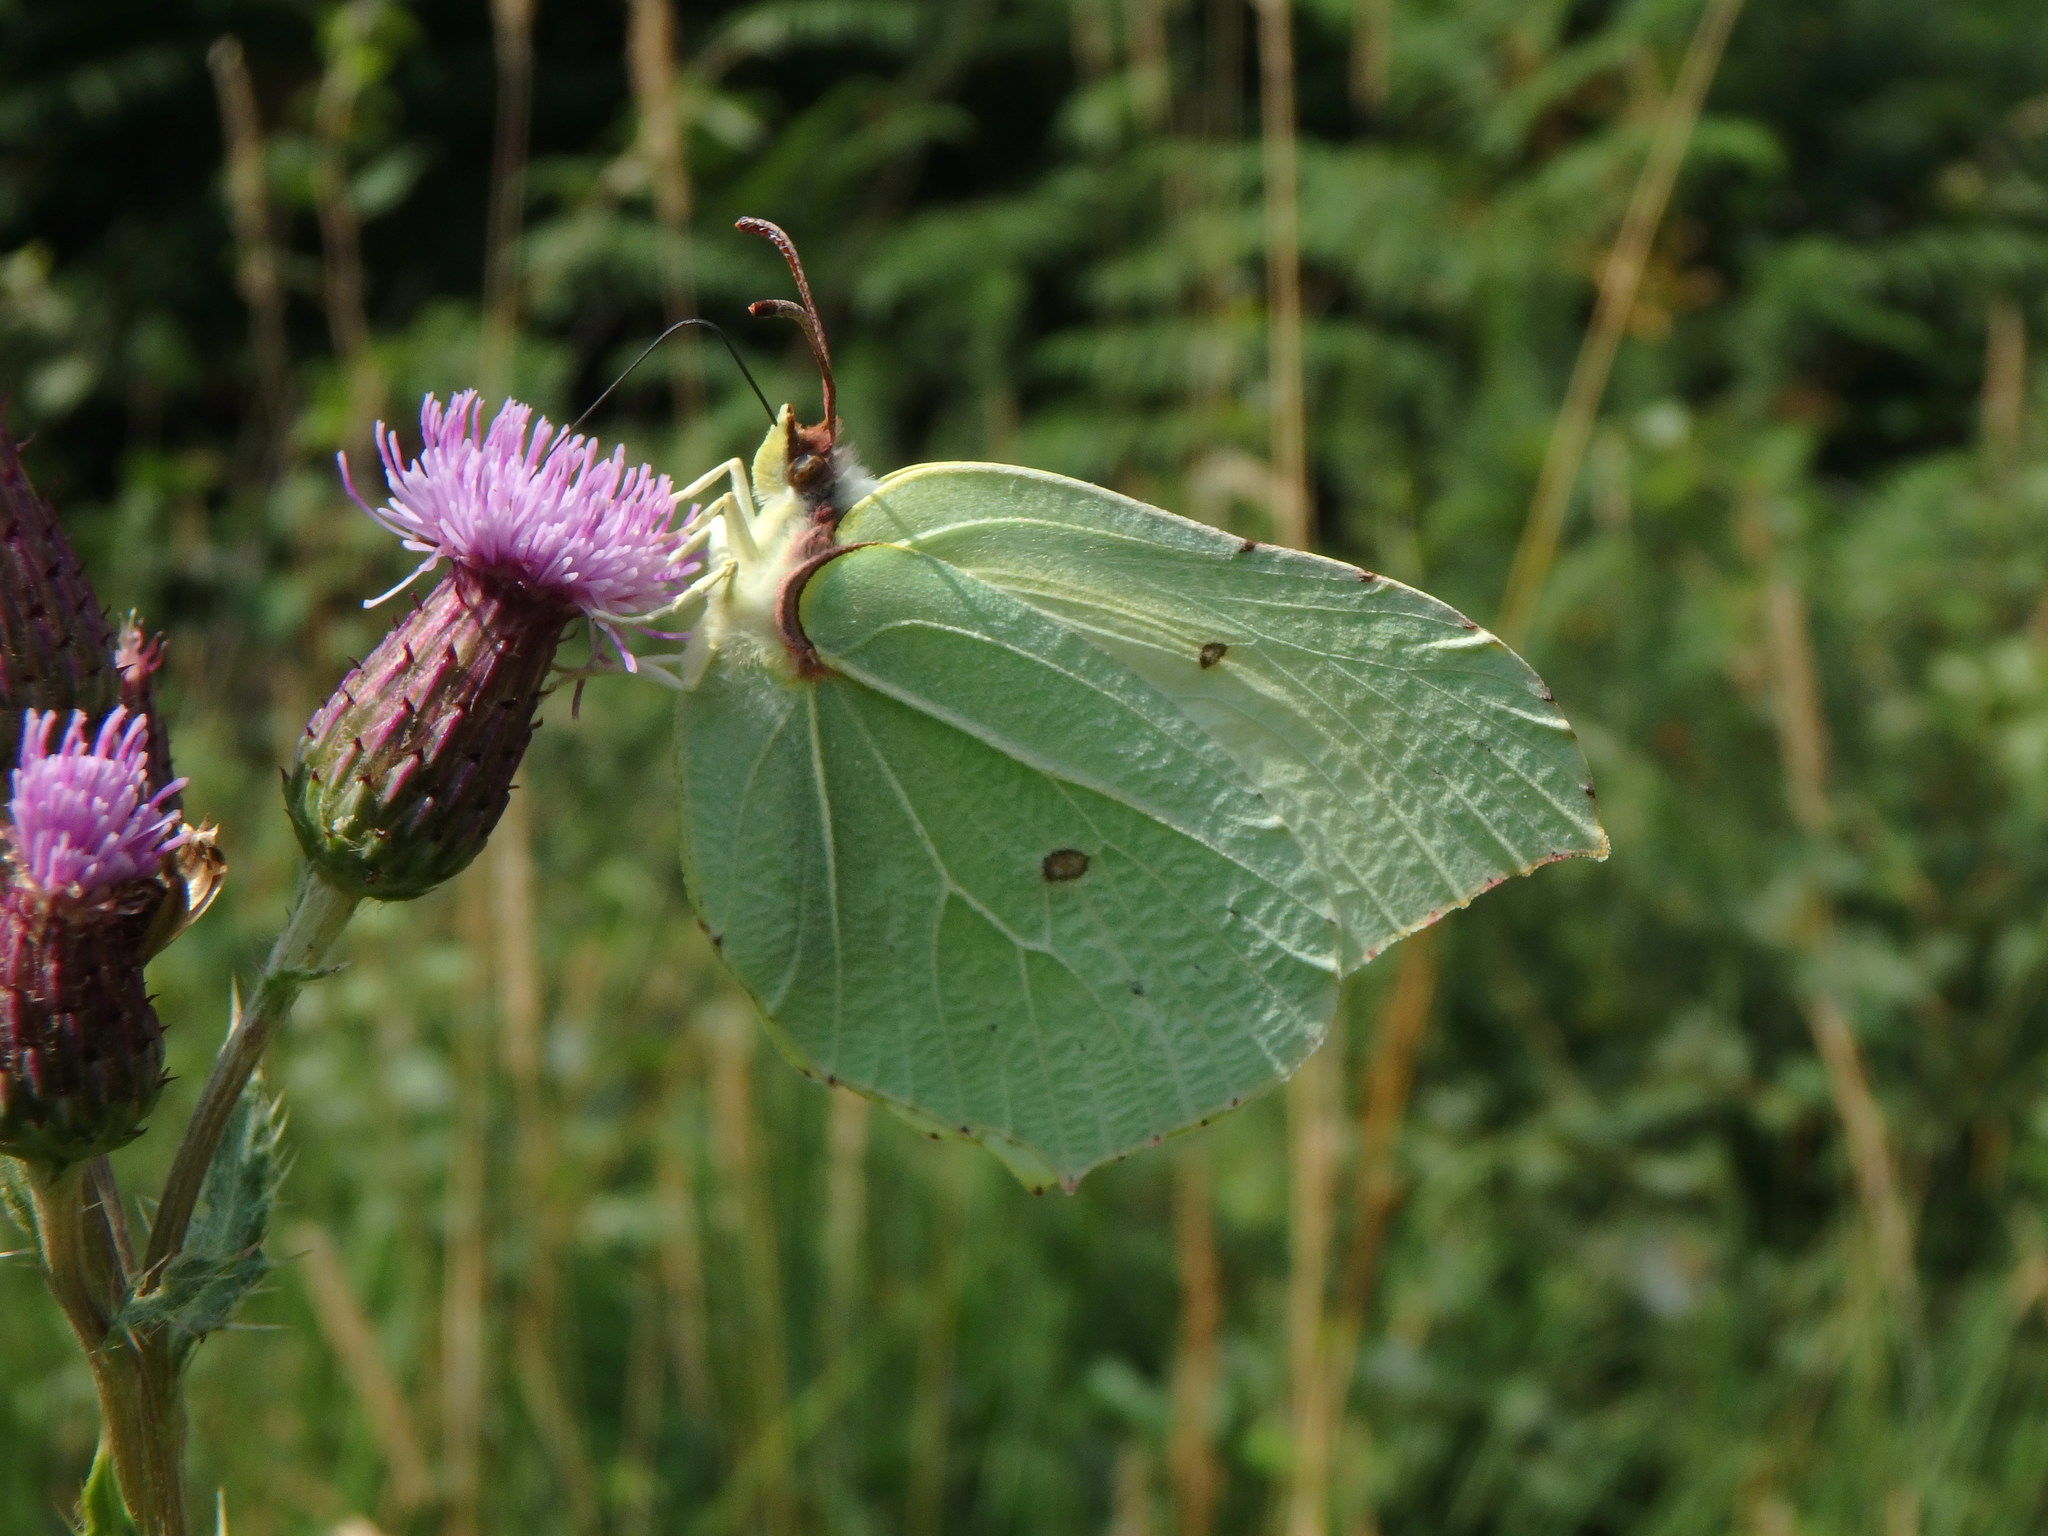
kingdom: Animalia
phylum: Arthropoda
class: Insecta
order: Lepidoptera
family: Pieridae
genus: Gonepteryx
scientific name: Gonepteryx rhamni
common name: Brimstone
